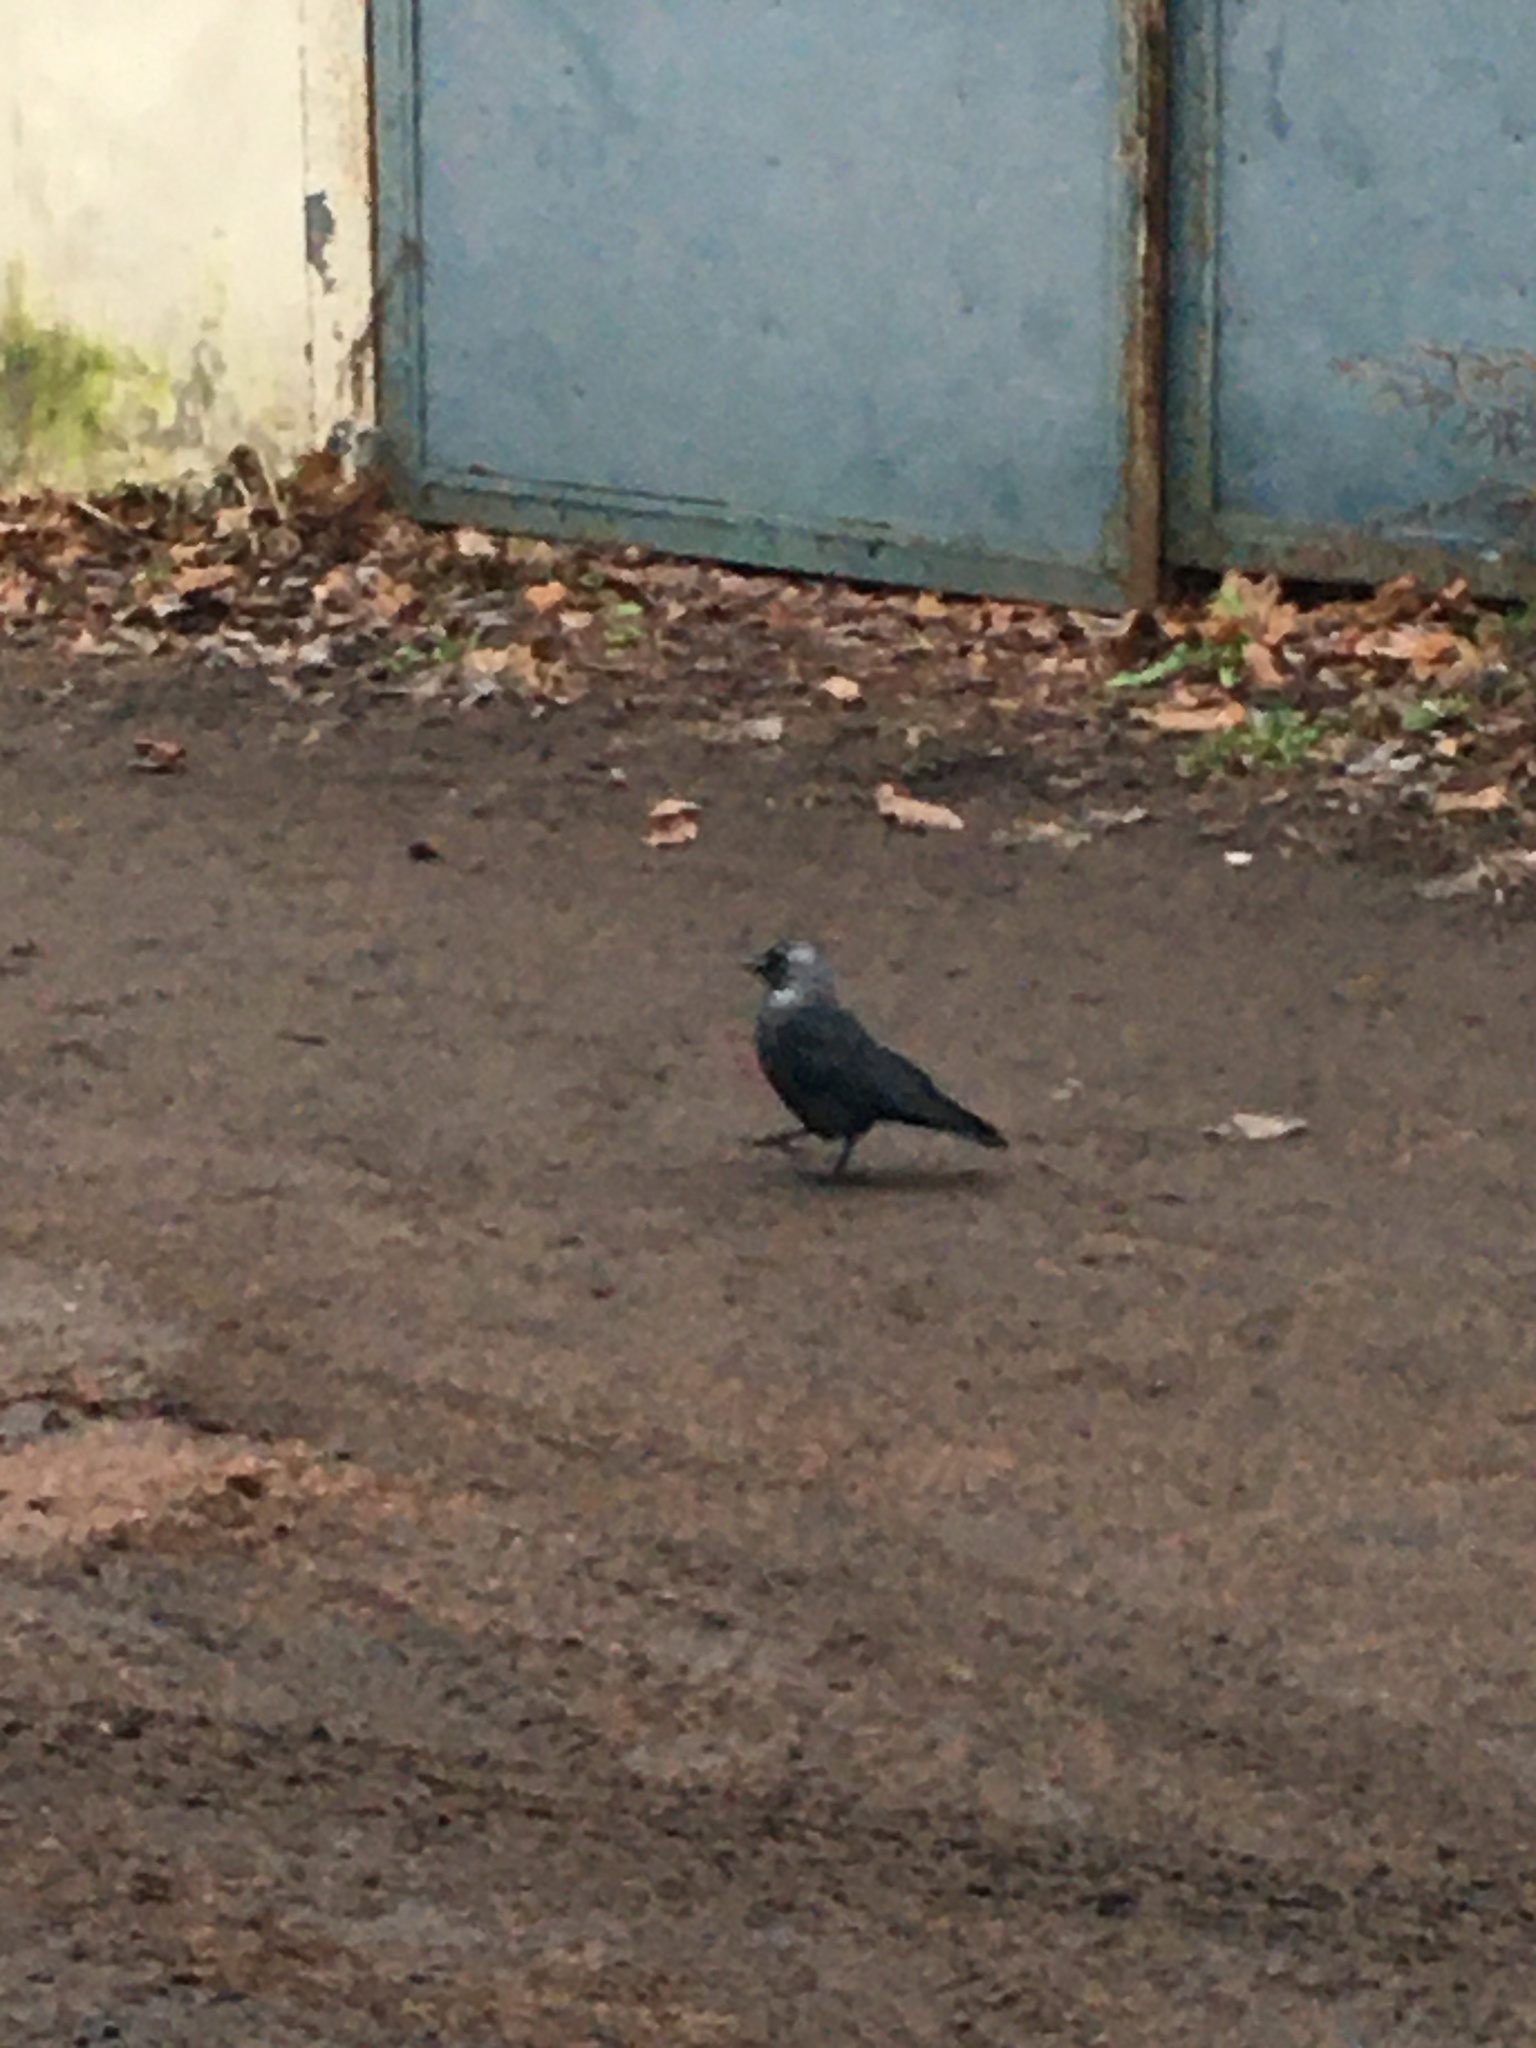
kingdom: Animalia
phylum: Chordata
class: Aves
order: Passeriformes
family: Corvidae
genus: Coloeus
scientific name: Coloeus monedula
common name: Western jackdaw
